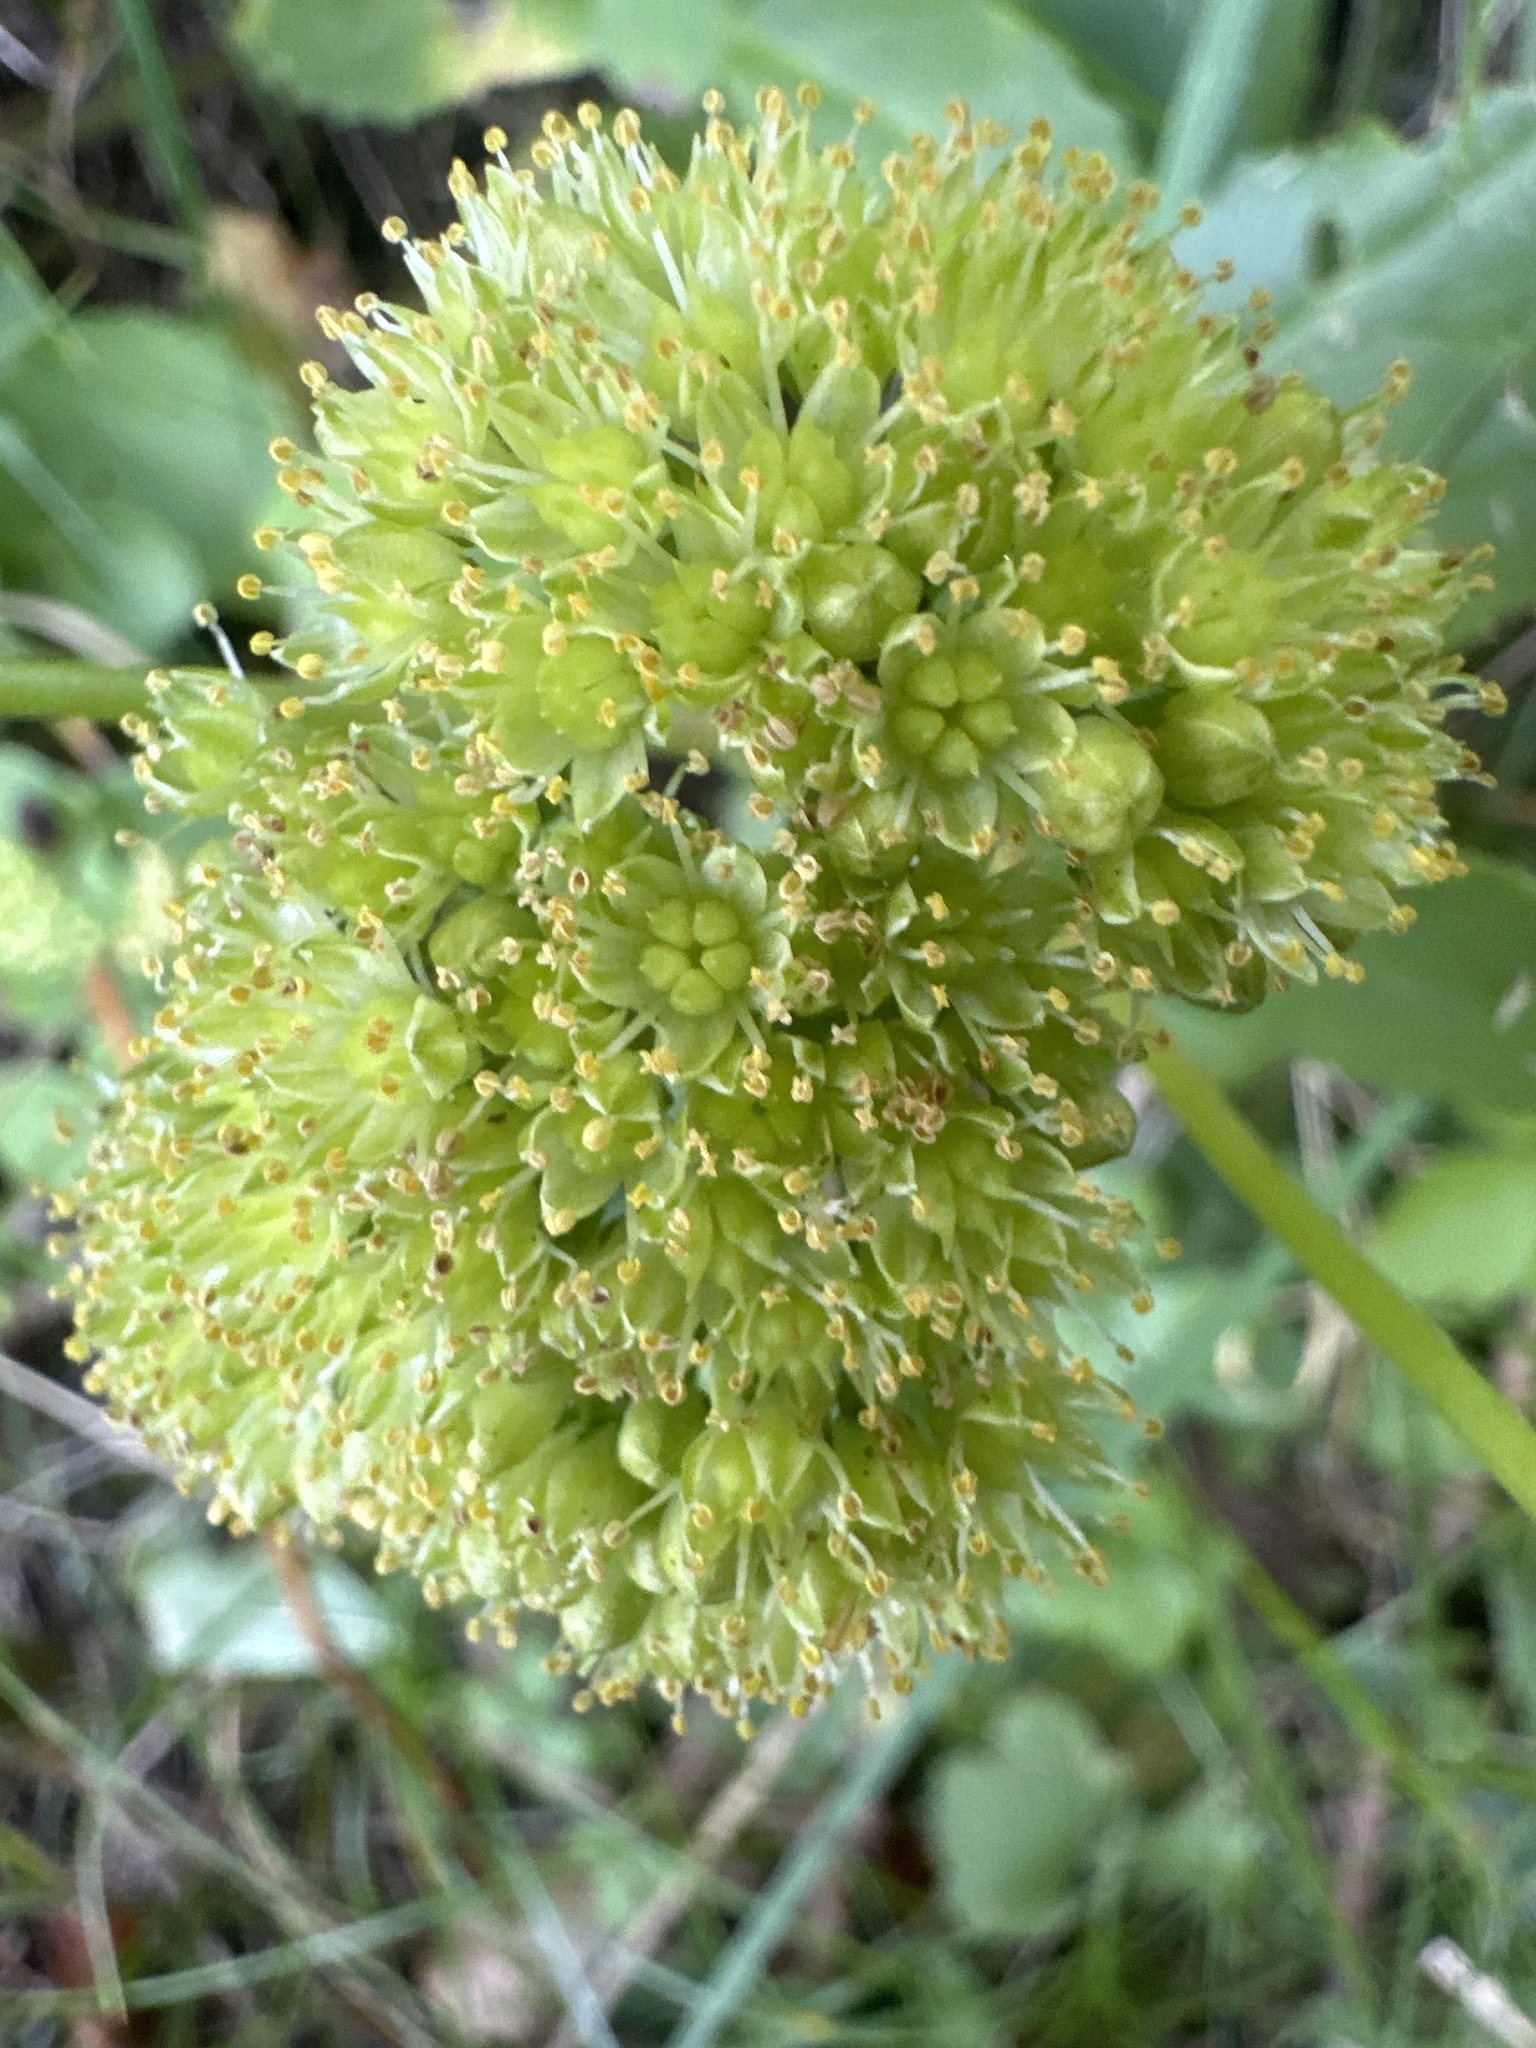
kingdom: Plantae
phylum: Tracheophyta
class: Magnoliopsida
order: Saxifragales
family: Crassulaceae
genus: Hylotelephium
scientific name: Hylotelephium maximum
